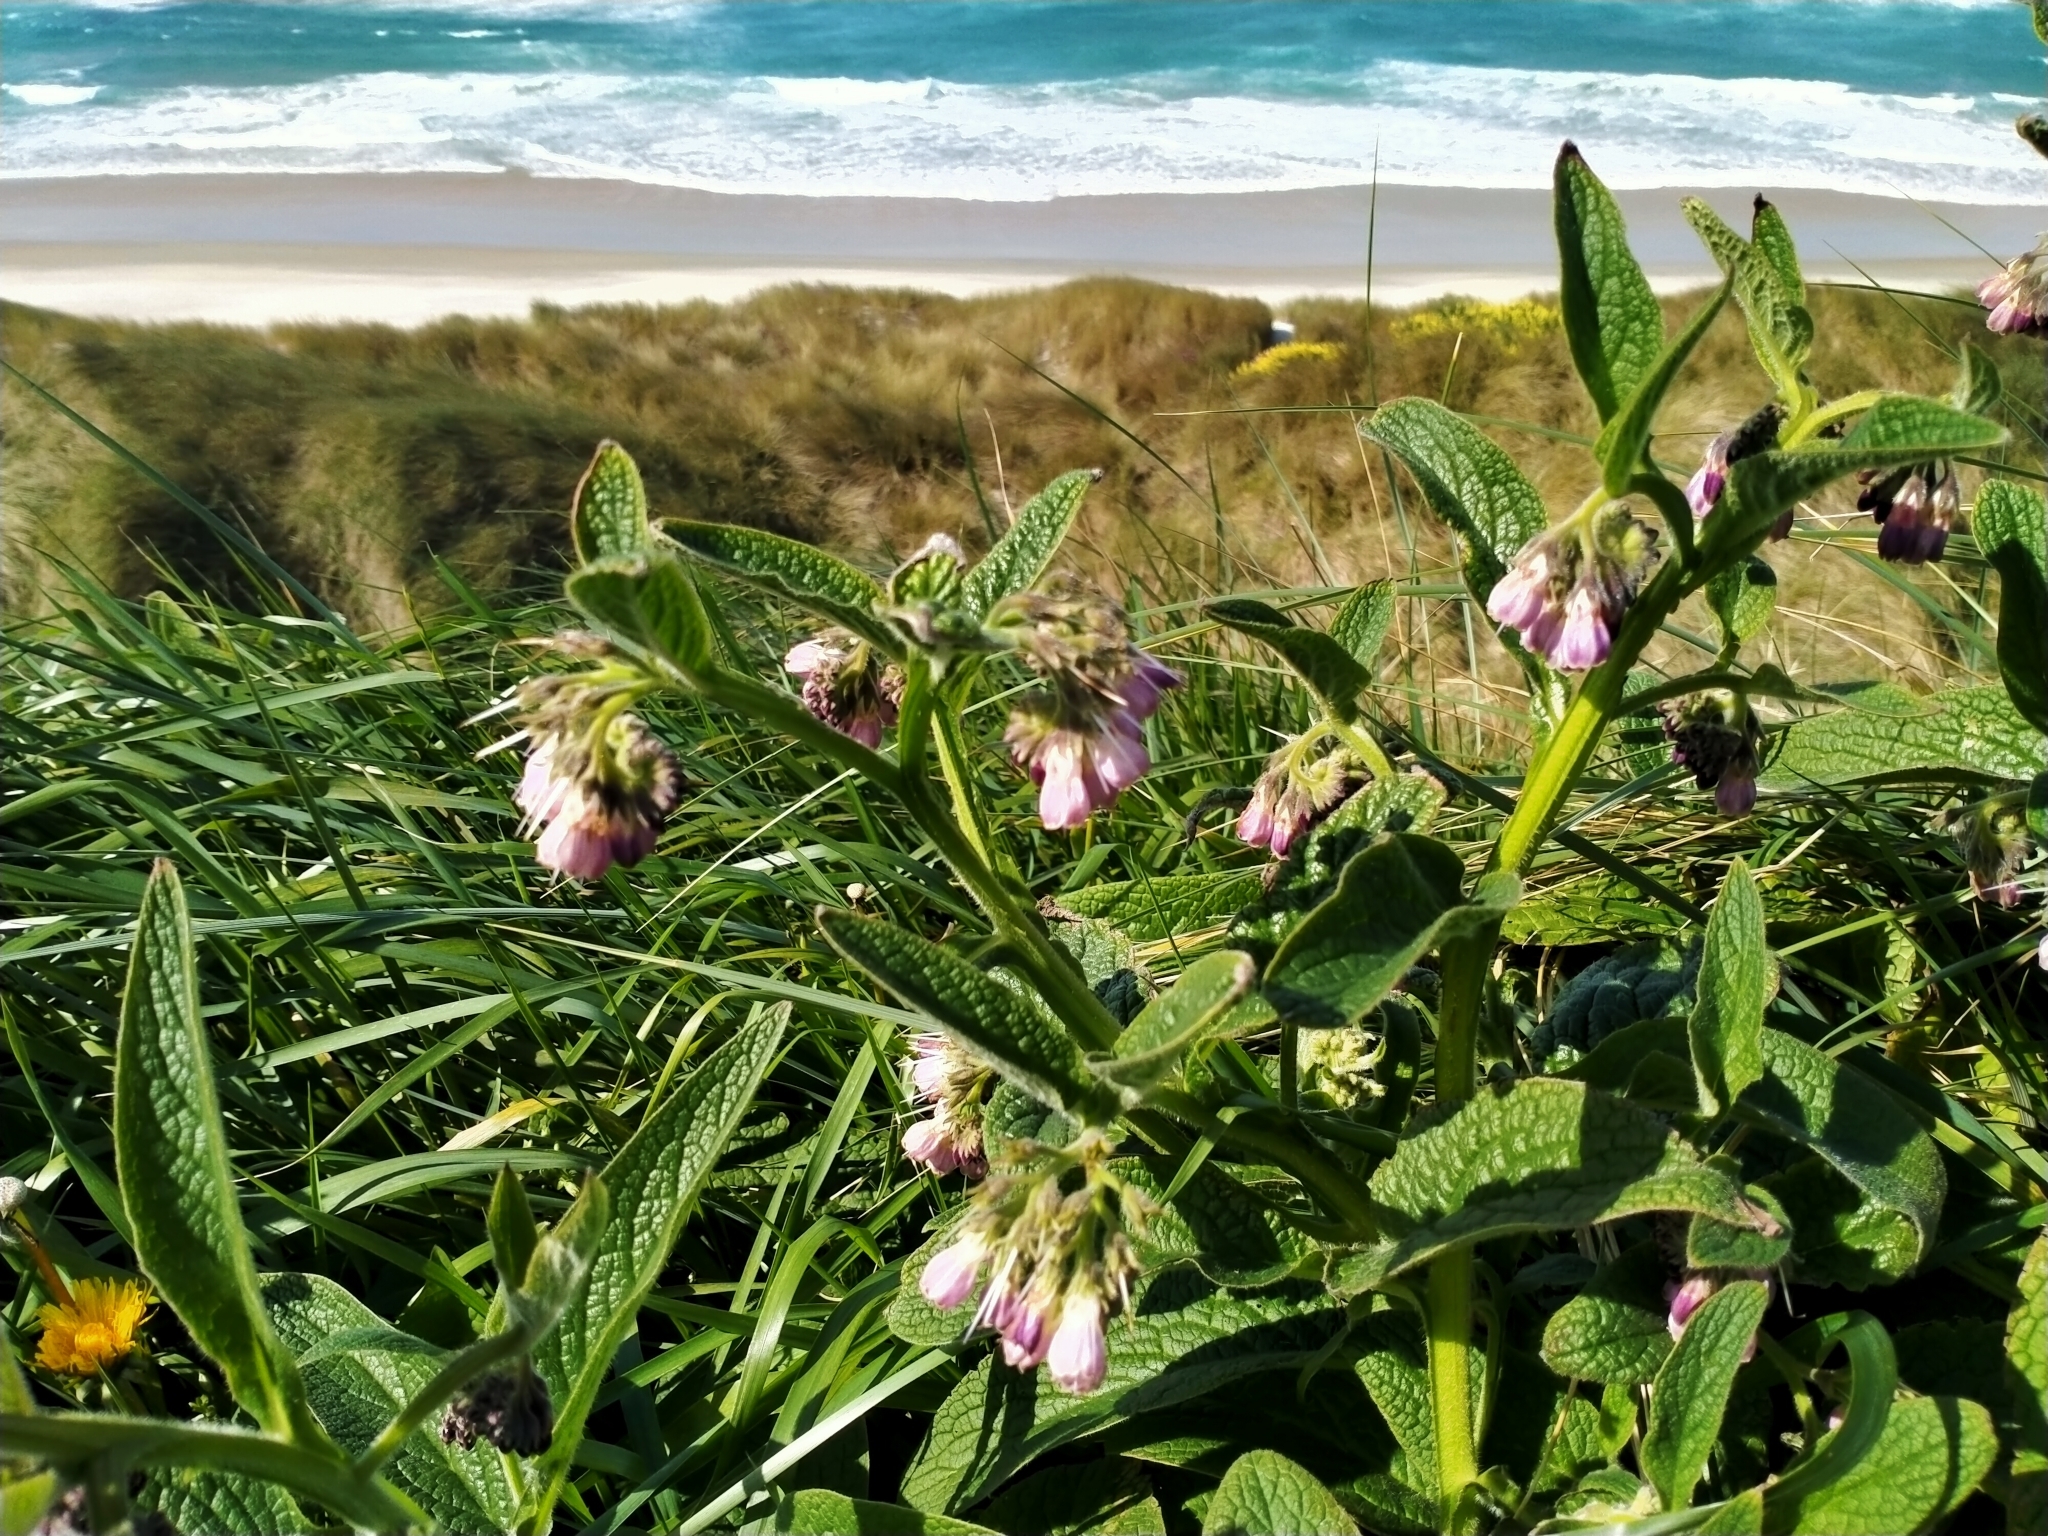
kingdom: Plantae
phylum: Tracheophyta
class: Magnoliopsida
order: Boraginales
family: Boraginaceae
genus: Symphytum
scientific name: Symphytum officinale
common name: Common comfrey
